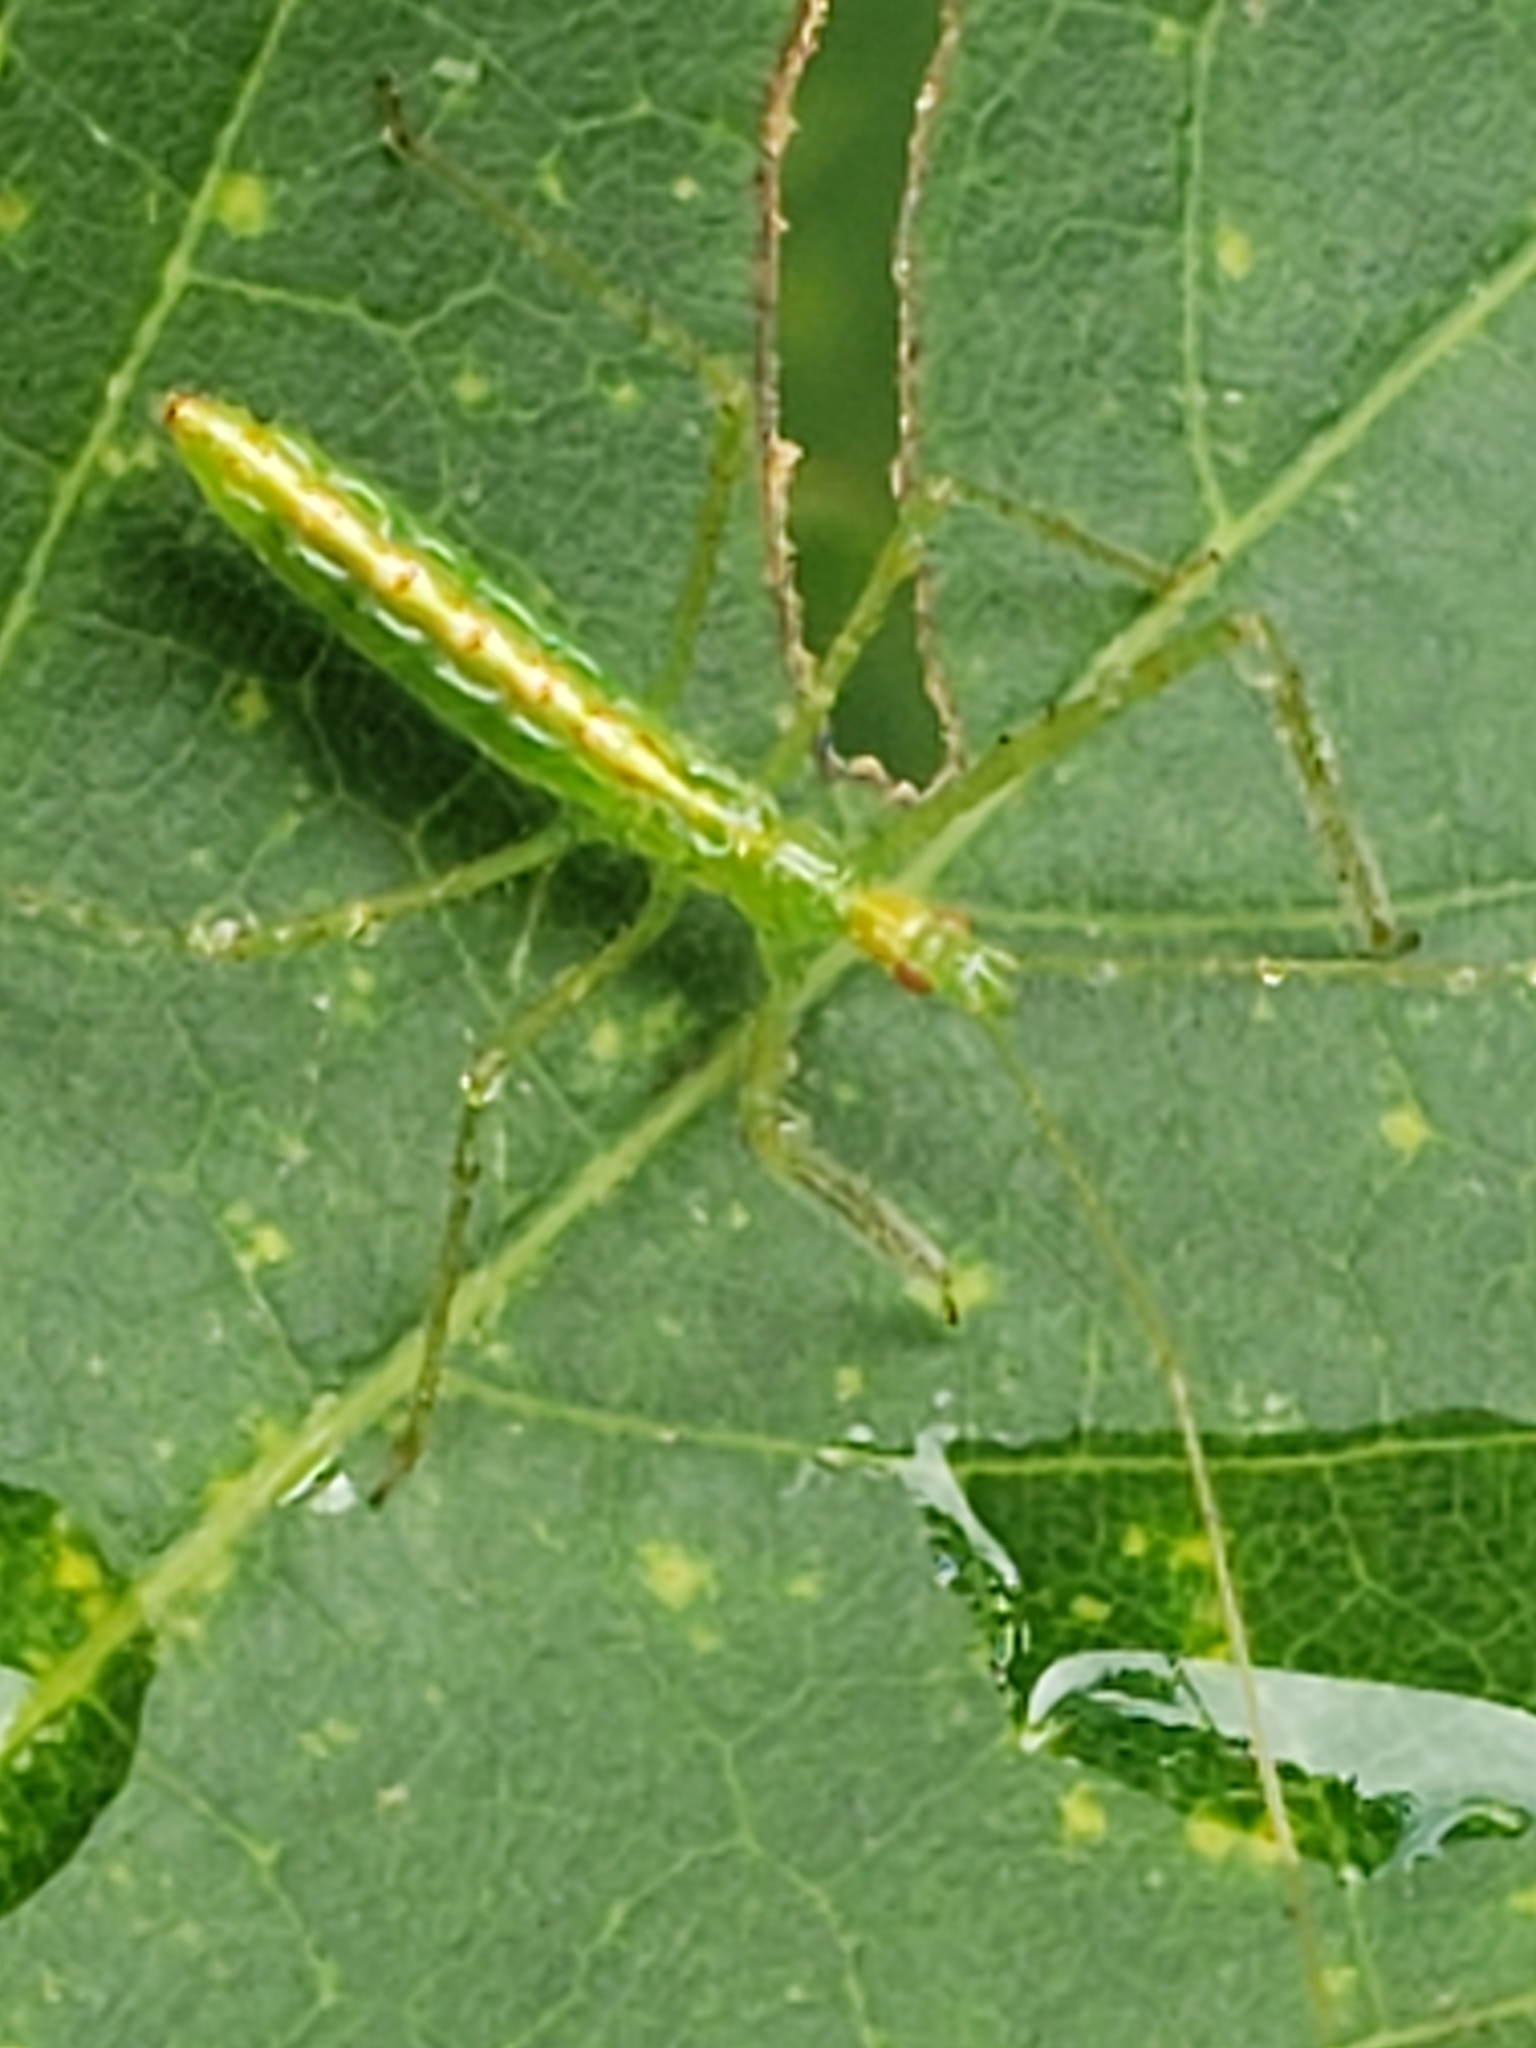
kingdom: Animalia
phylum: Arthropoda
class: Insecta
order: Hemiptera
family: Reduviidae
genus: Zelus
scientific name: Zelus luridus
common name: Pale green assassin bug
